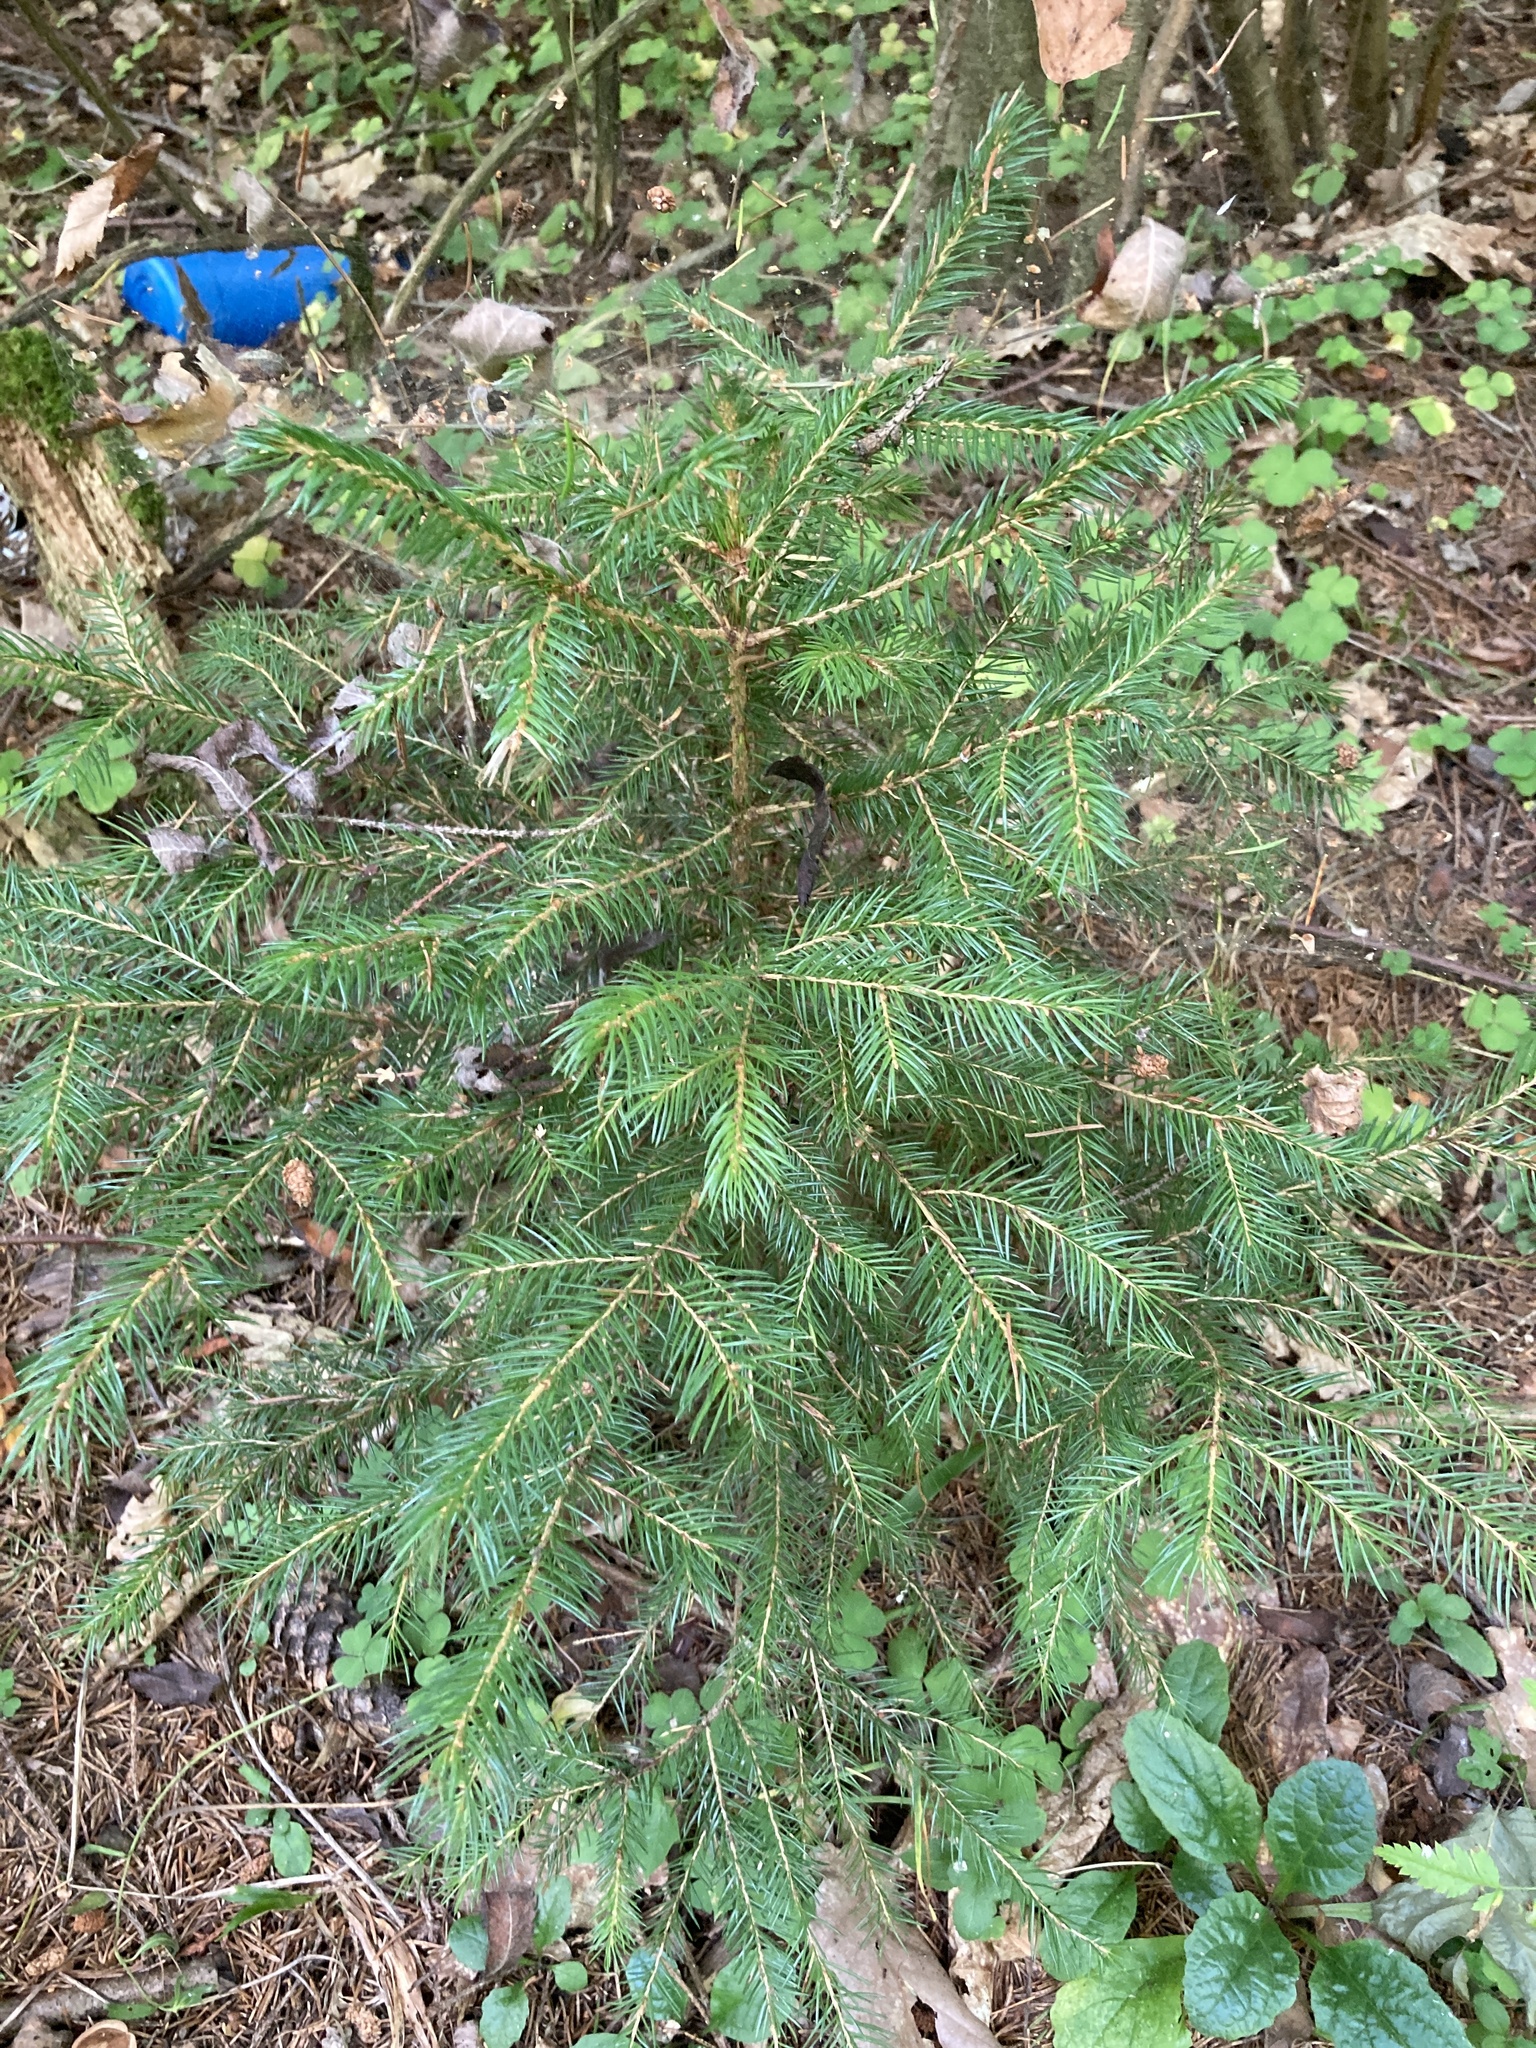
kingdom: Plantae
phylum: Tracheophyta
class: Pinopsida
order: Pinales
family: Pinaceae
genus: Picea
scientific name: Picea abies
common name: Norway spruce
